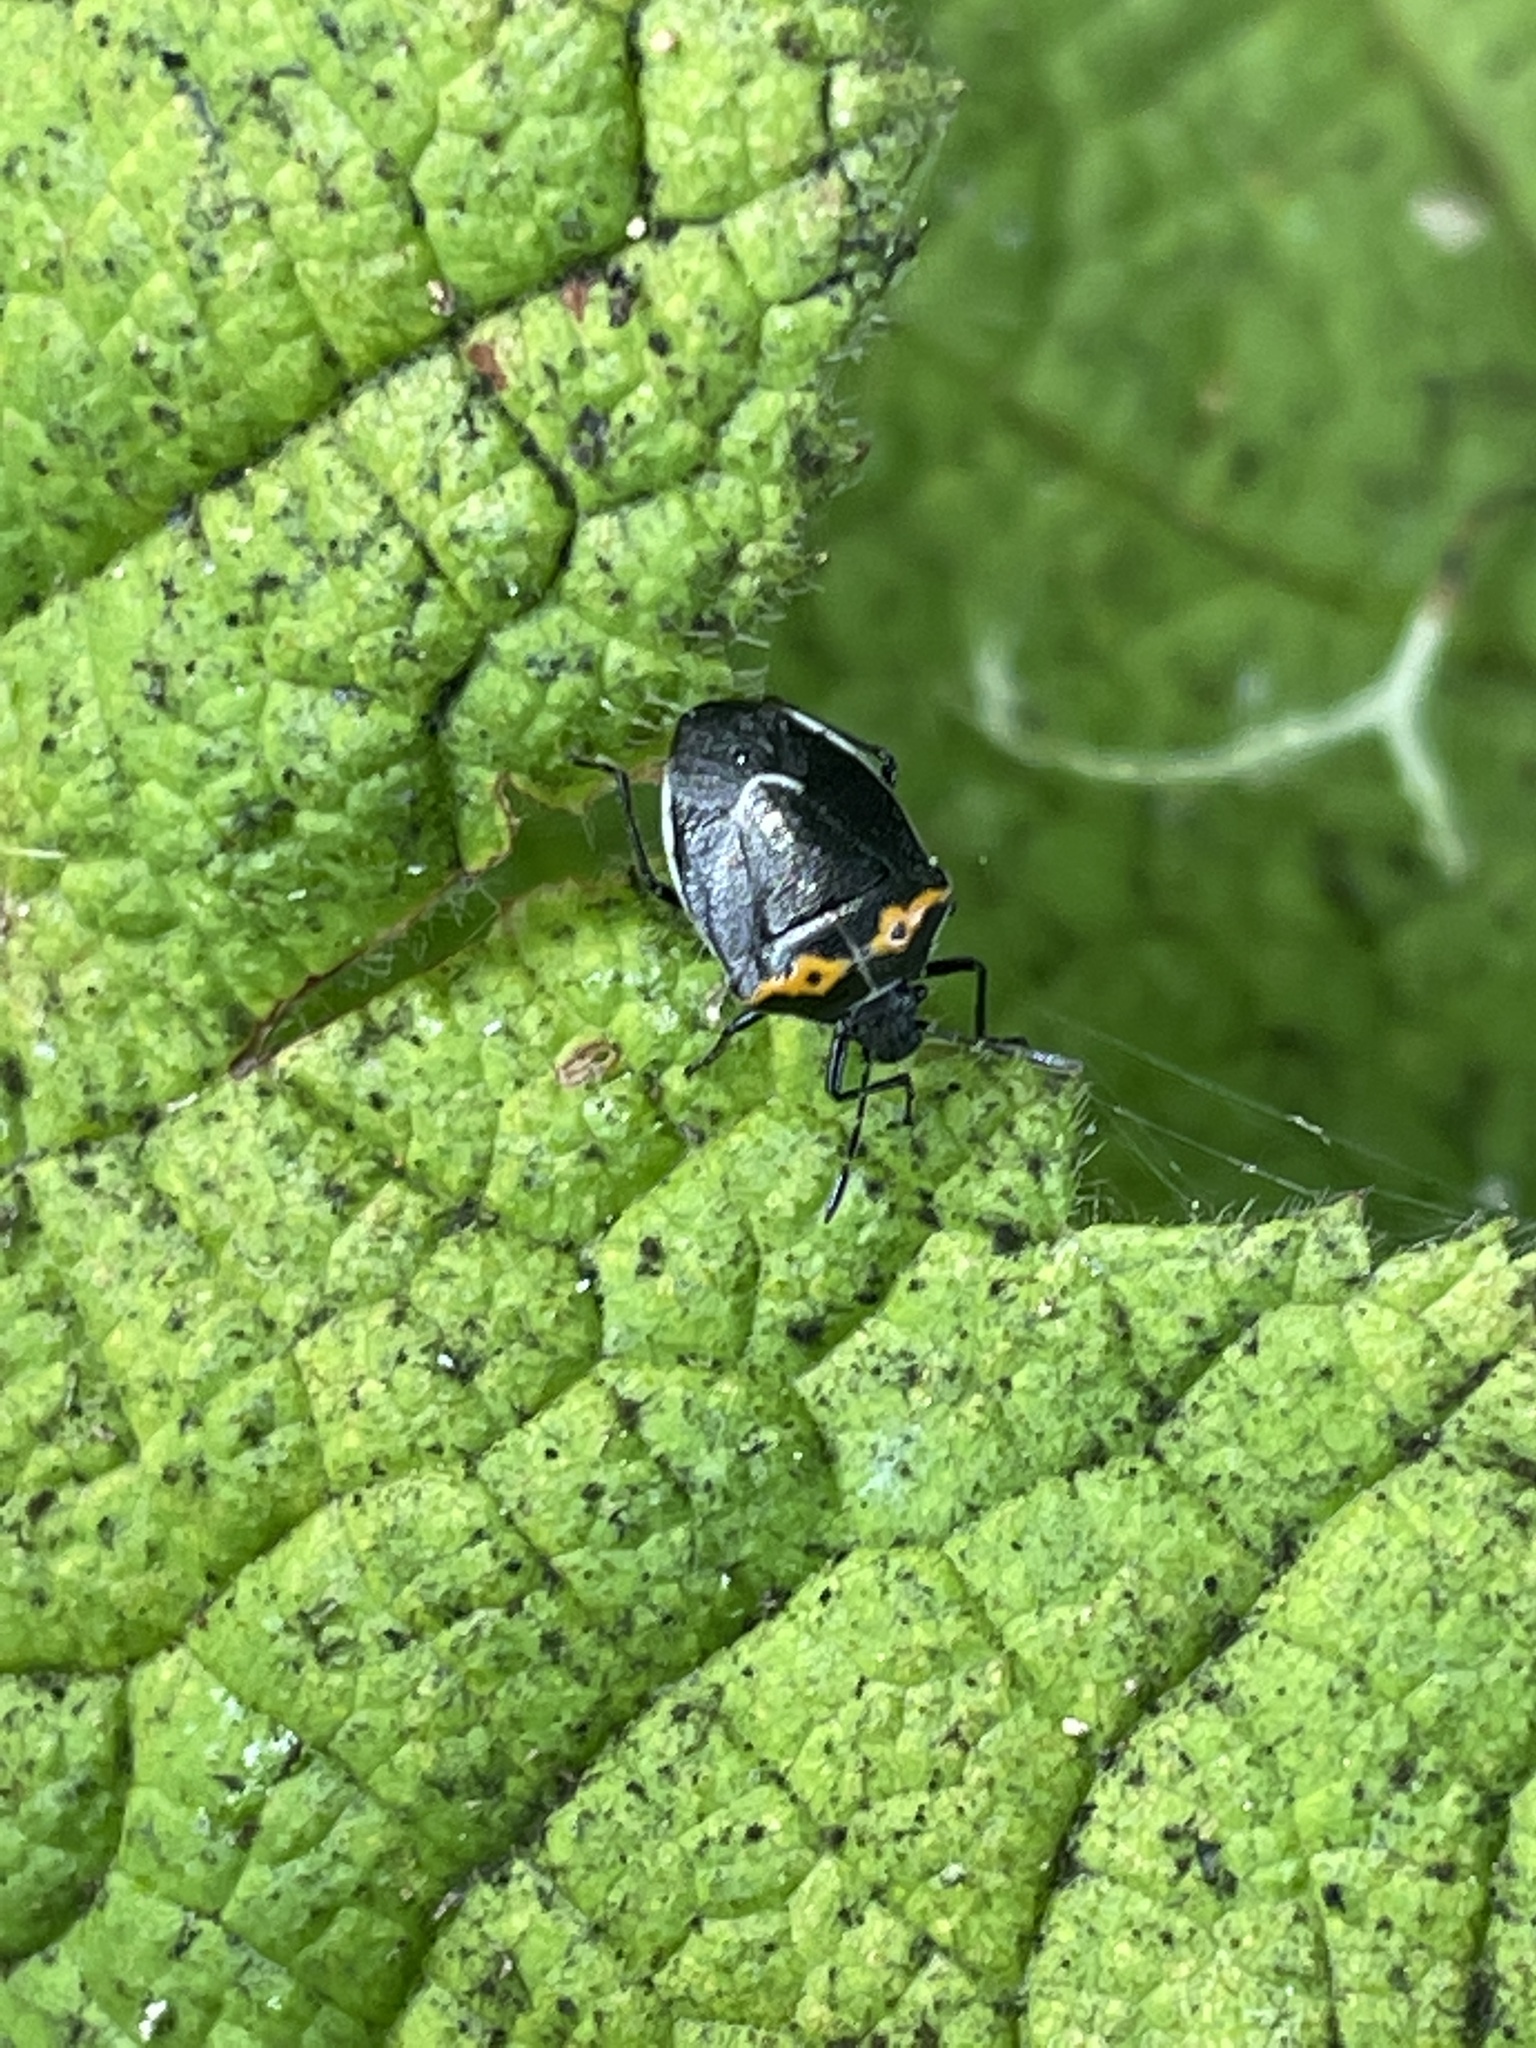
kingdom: Animalia
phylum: Arthropoda
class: Insecta
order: Hemiptera
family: Pentatomidae
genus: Cosmopepla
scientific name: Cosmopepla conspicillaris
